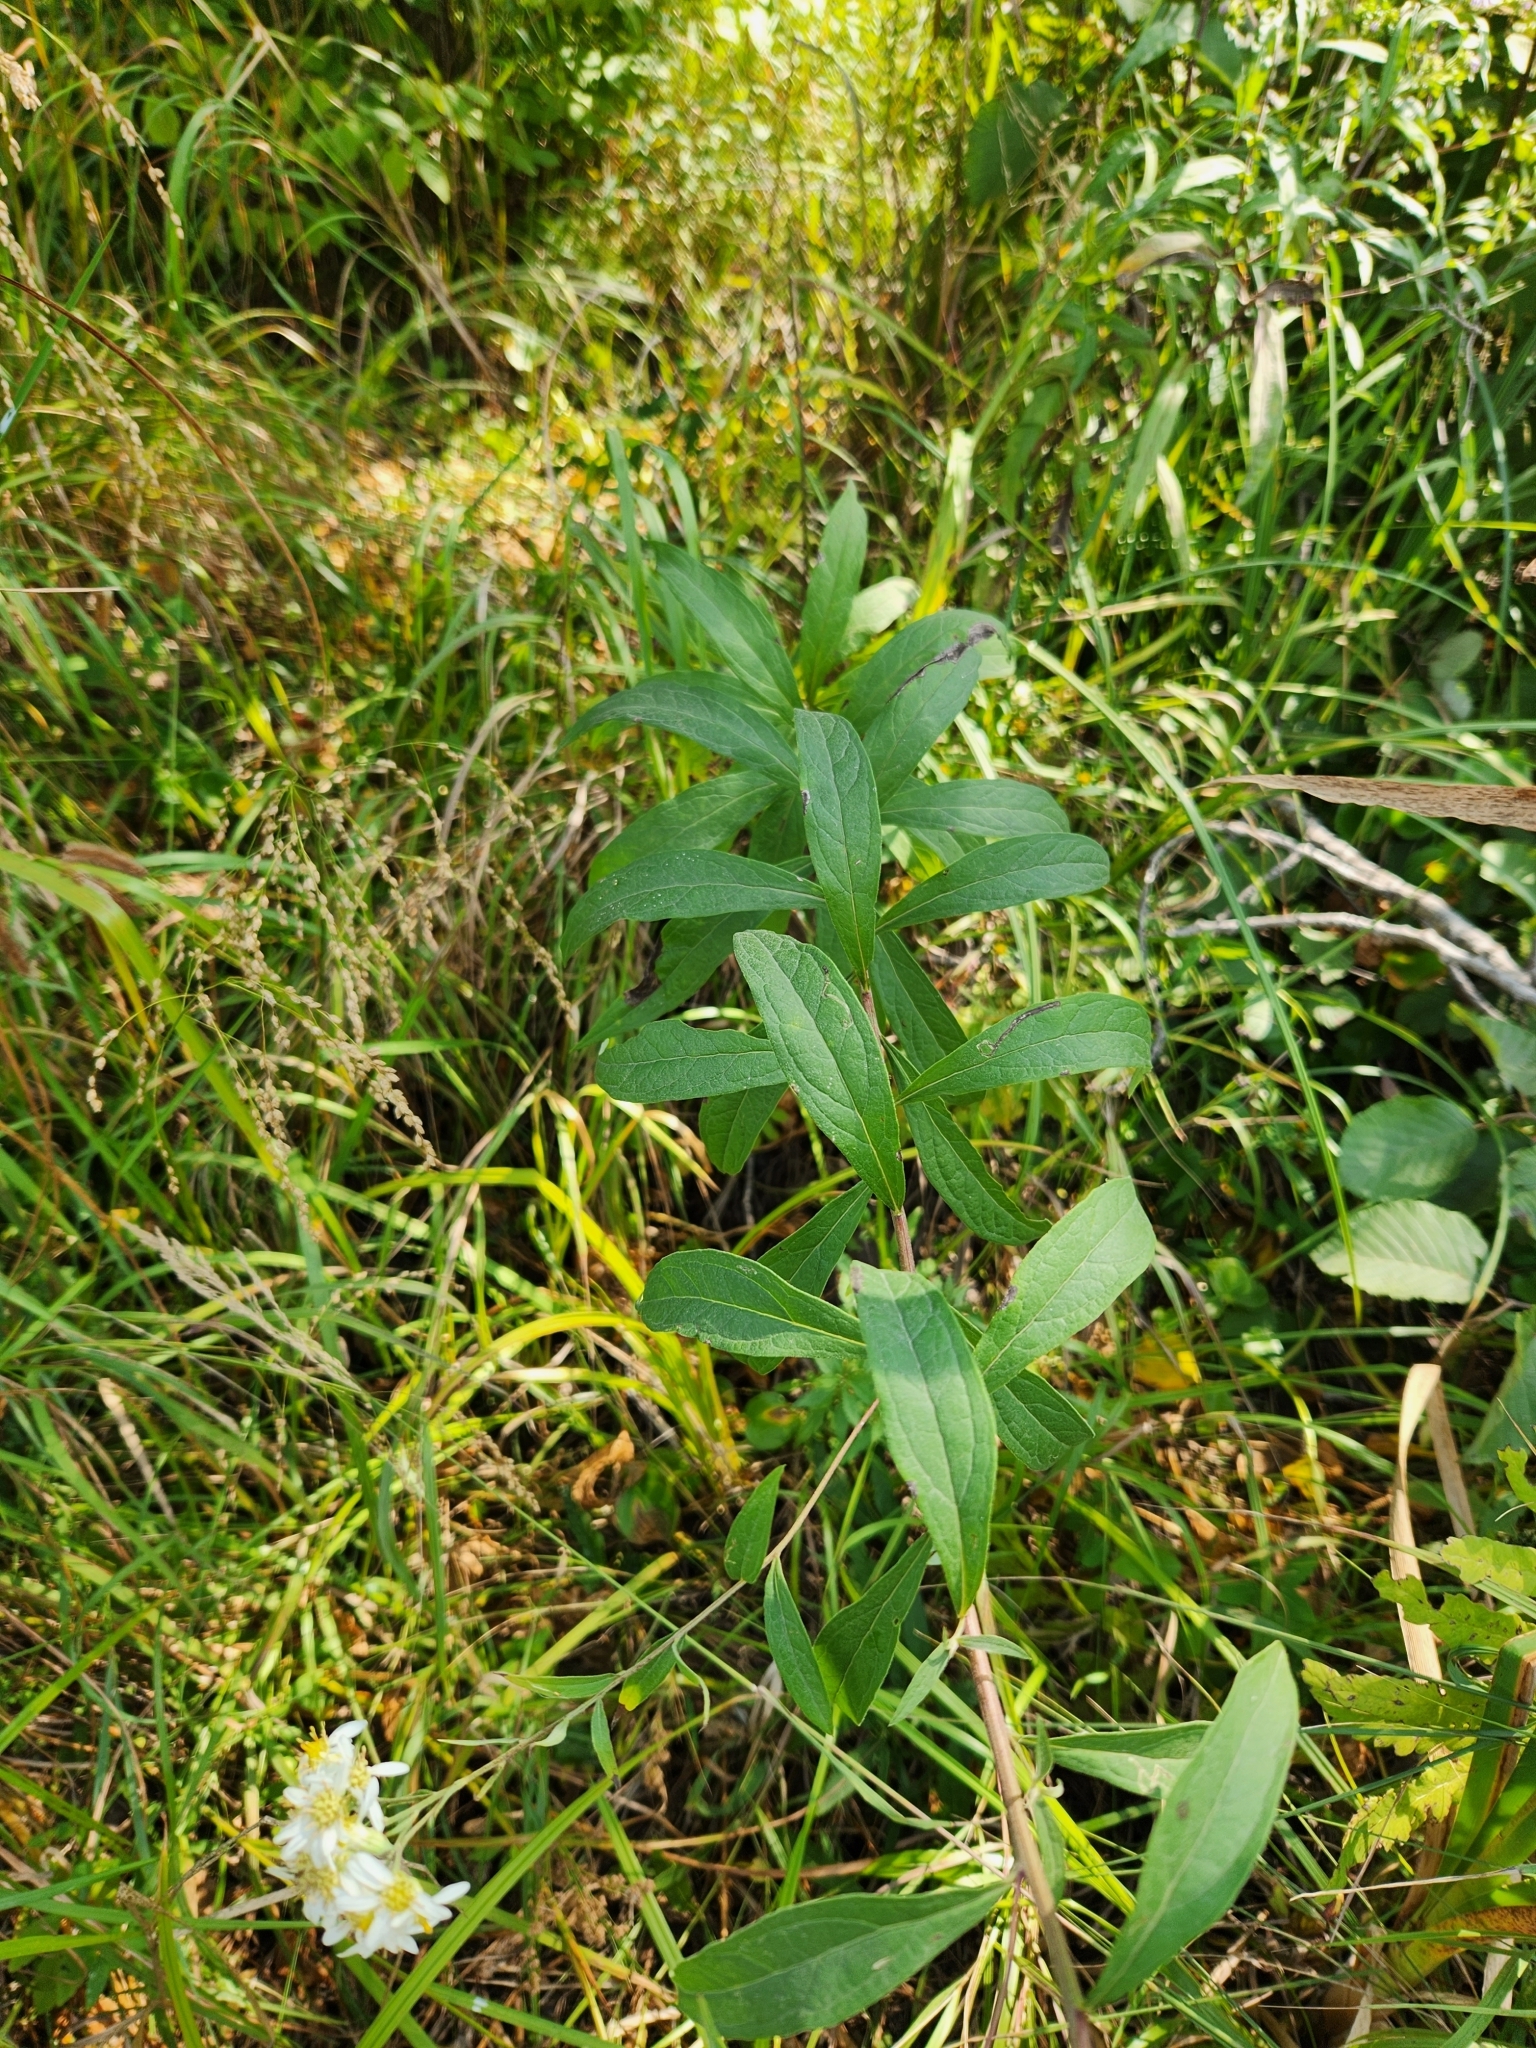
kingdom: Plantae
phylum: Tracheophyta
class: Magnoliopsida
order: Asterales
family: Asteraceae
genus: Doellingeria
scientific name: Doellingeria umbellata
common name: Flat-top white aster
